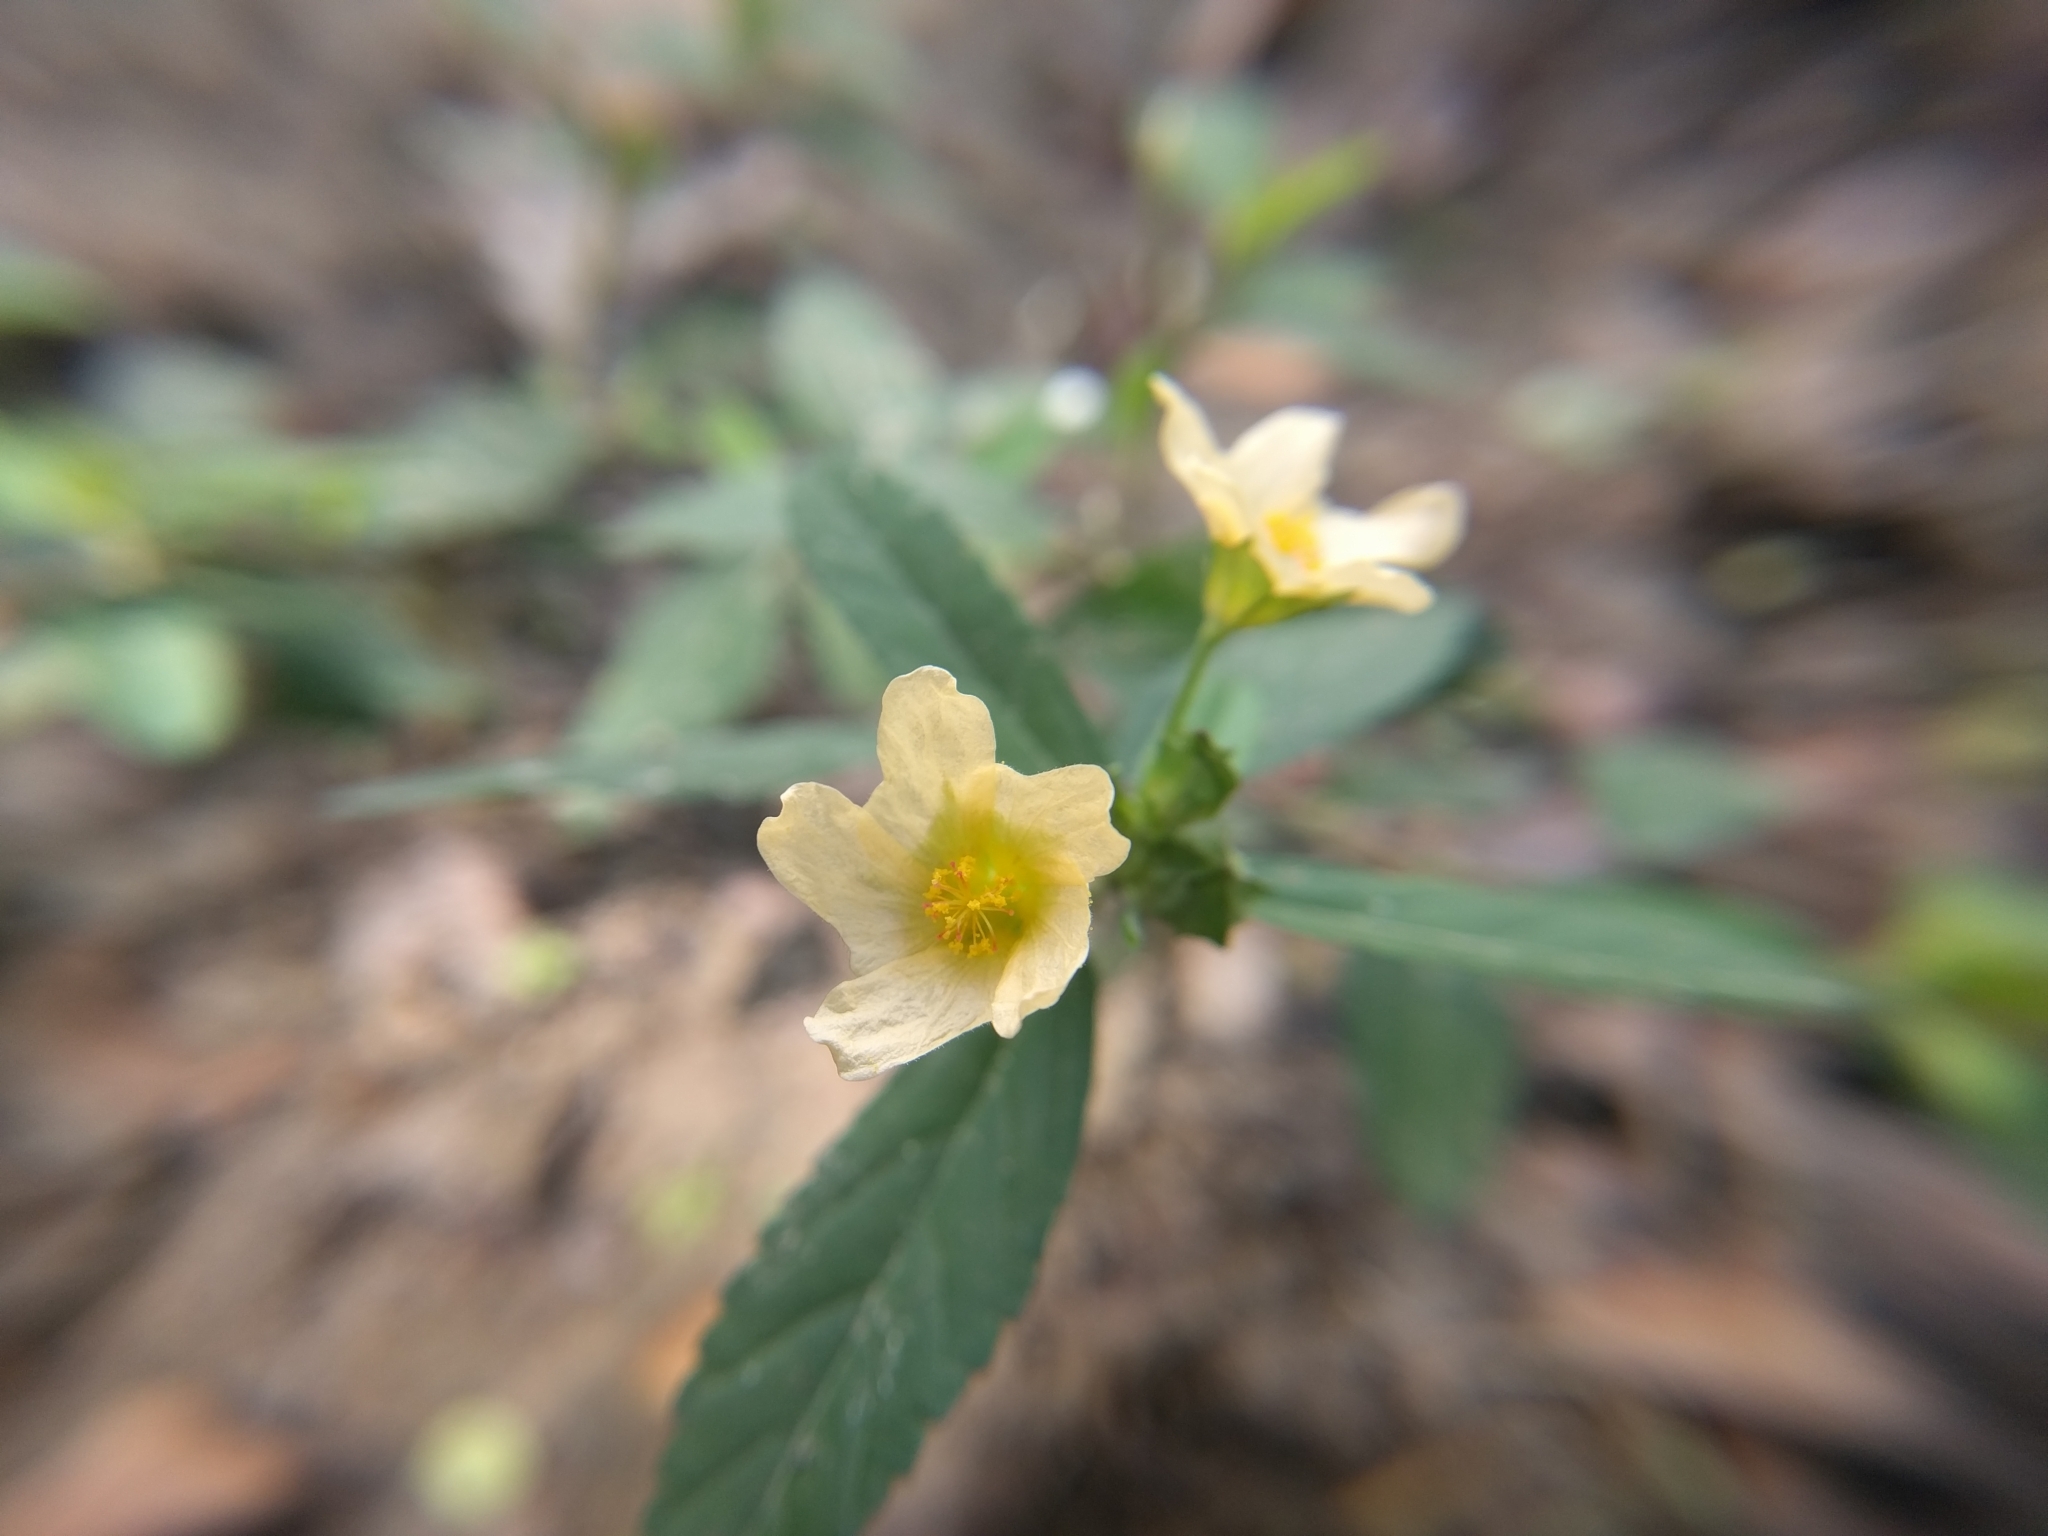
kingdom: Plantae
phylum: Tracheophyta
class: Magnoliopsida
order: Malvales
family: Malvaceae
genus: Sida
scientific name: Sida rhombifolia
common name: Queensland-hemp
